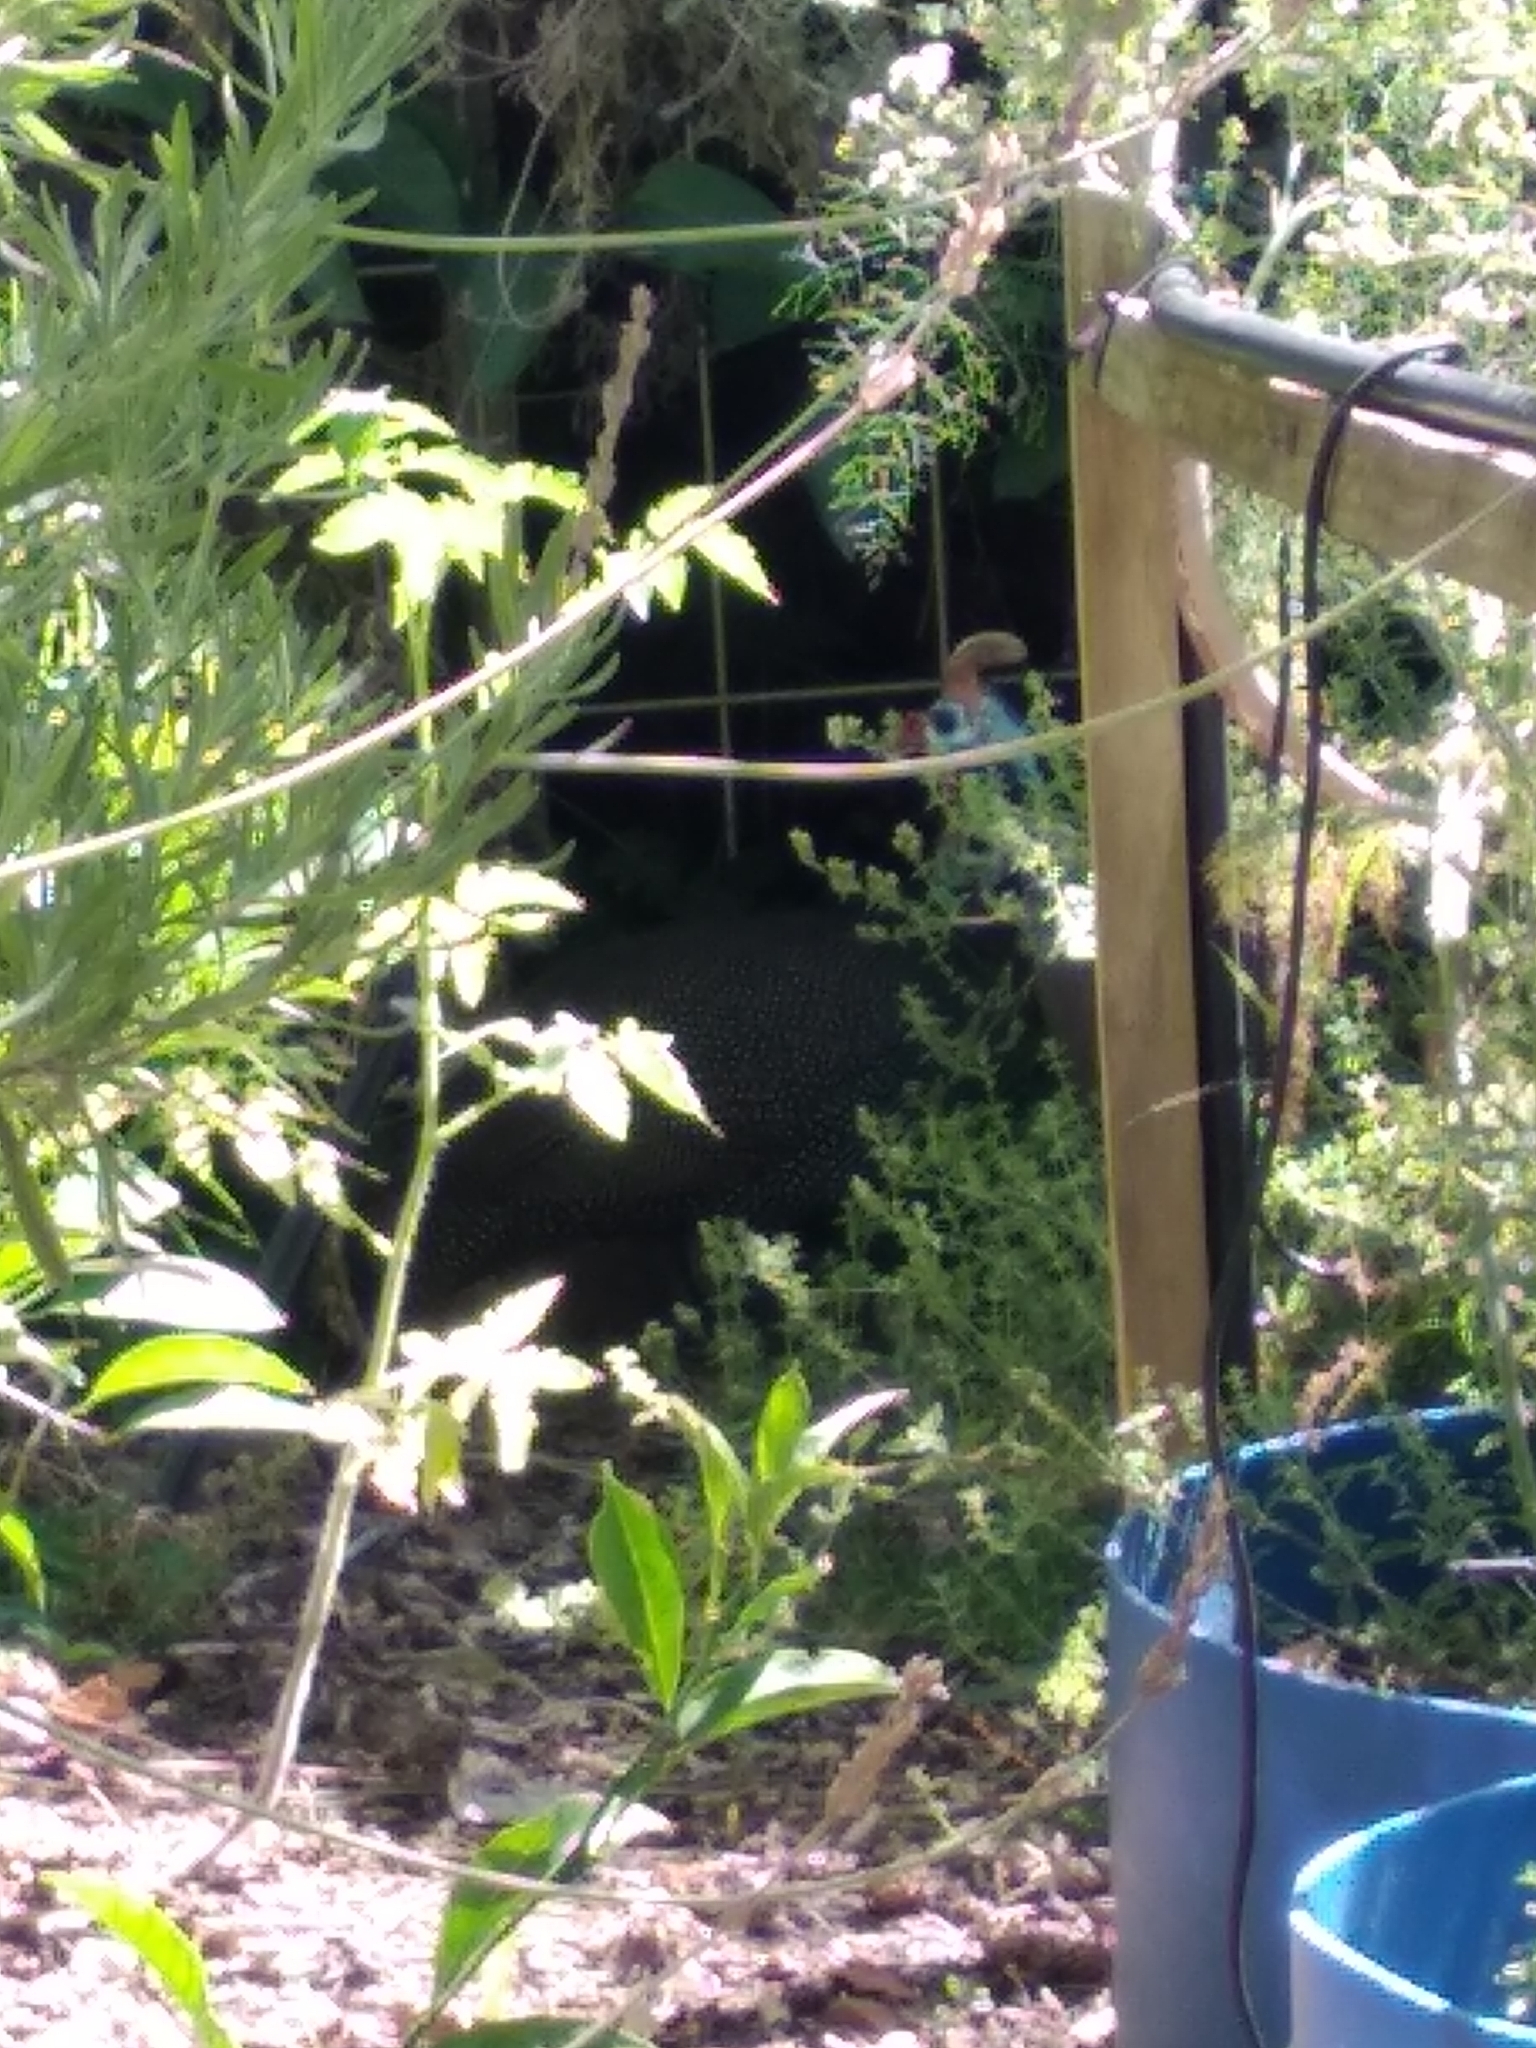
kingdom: Animalia
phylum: Chordata
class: Aves
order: Galliformes
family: Numididae
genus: Numida
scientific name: Numida meleagris
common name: Helmeted guineafowl
